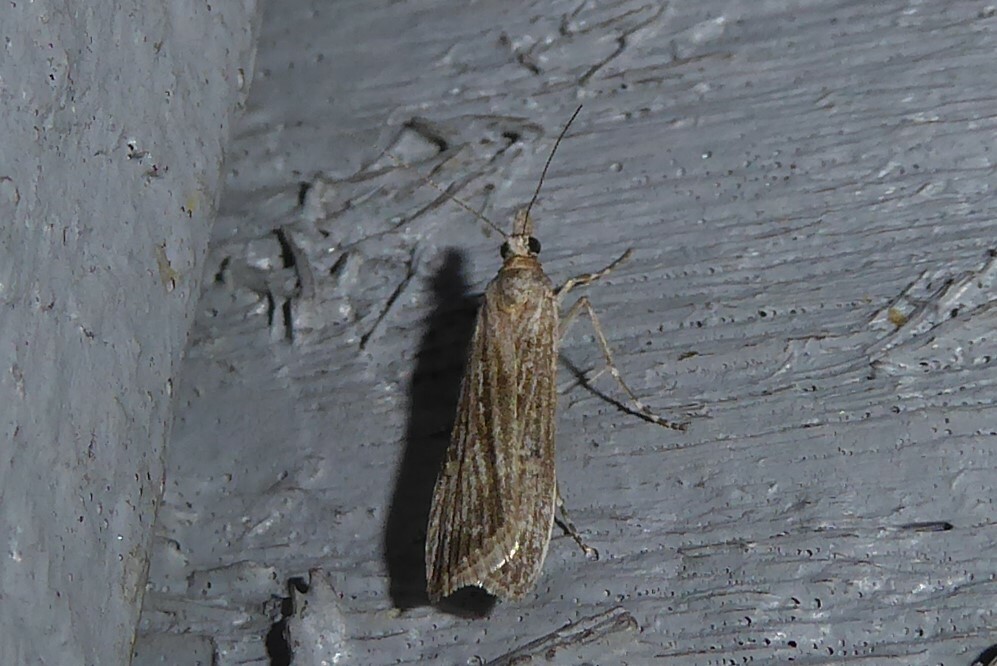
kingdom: Animalia
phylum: Arthropoda
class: Insecta
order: Lepidoptera
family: Crambidae
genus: Eudonia
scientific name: Eudonia atmogramma
